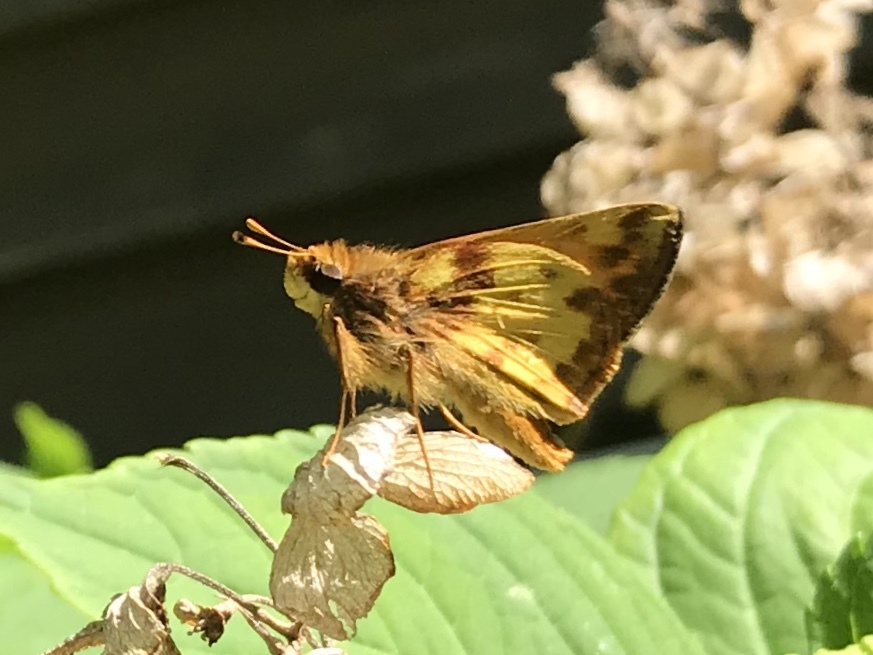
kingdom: Animalia
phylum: Arthropoda
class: Insecta
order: Lepidoptera
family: Hesperiidae
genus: Lon
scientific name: Lon zabulon
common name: Zabulon skipper
